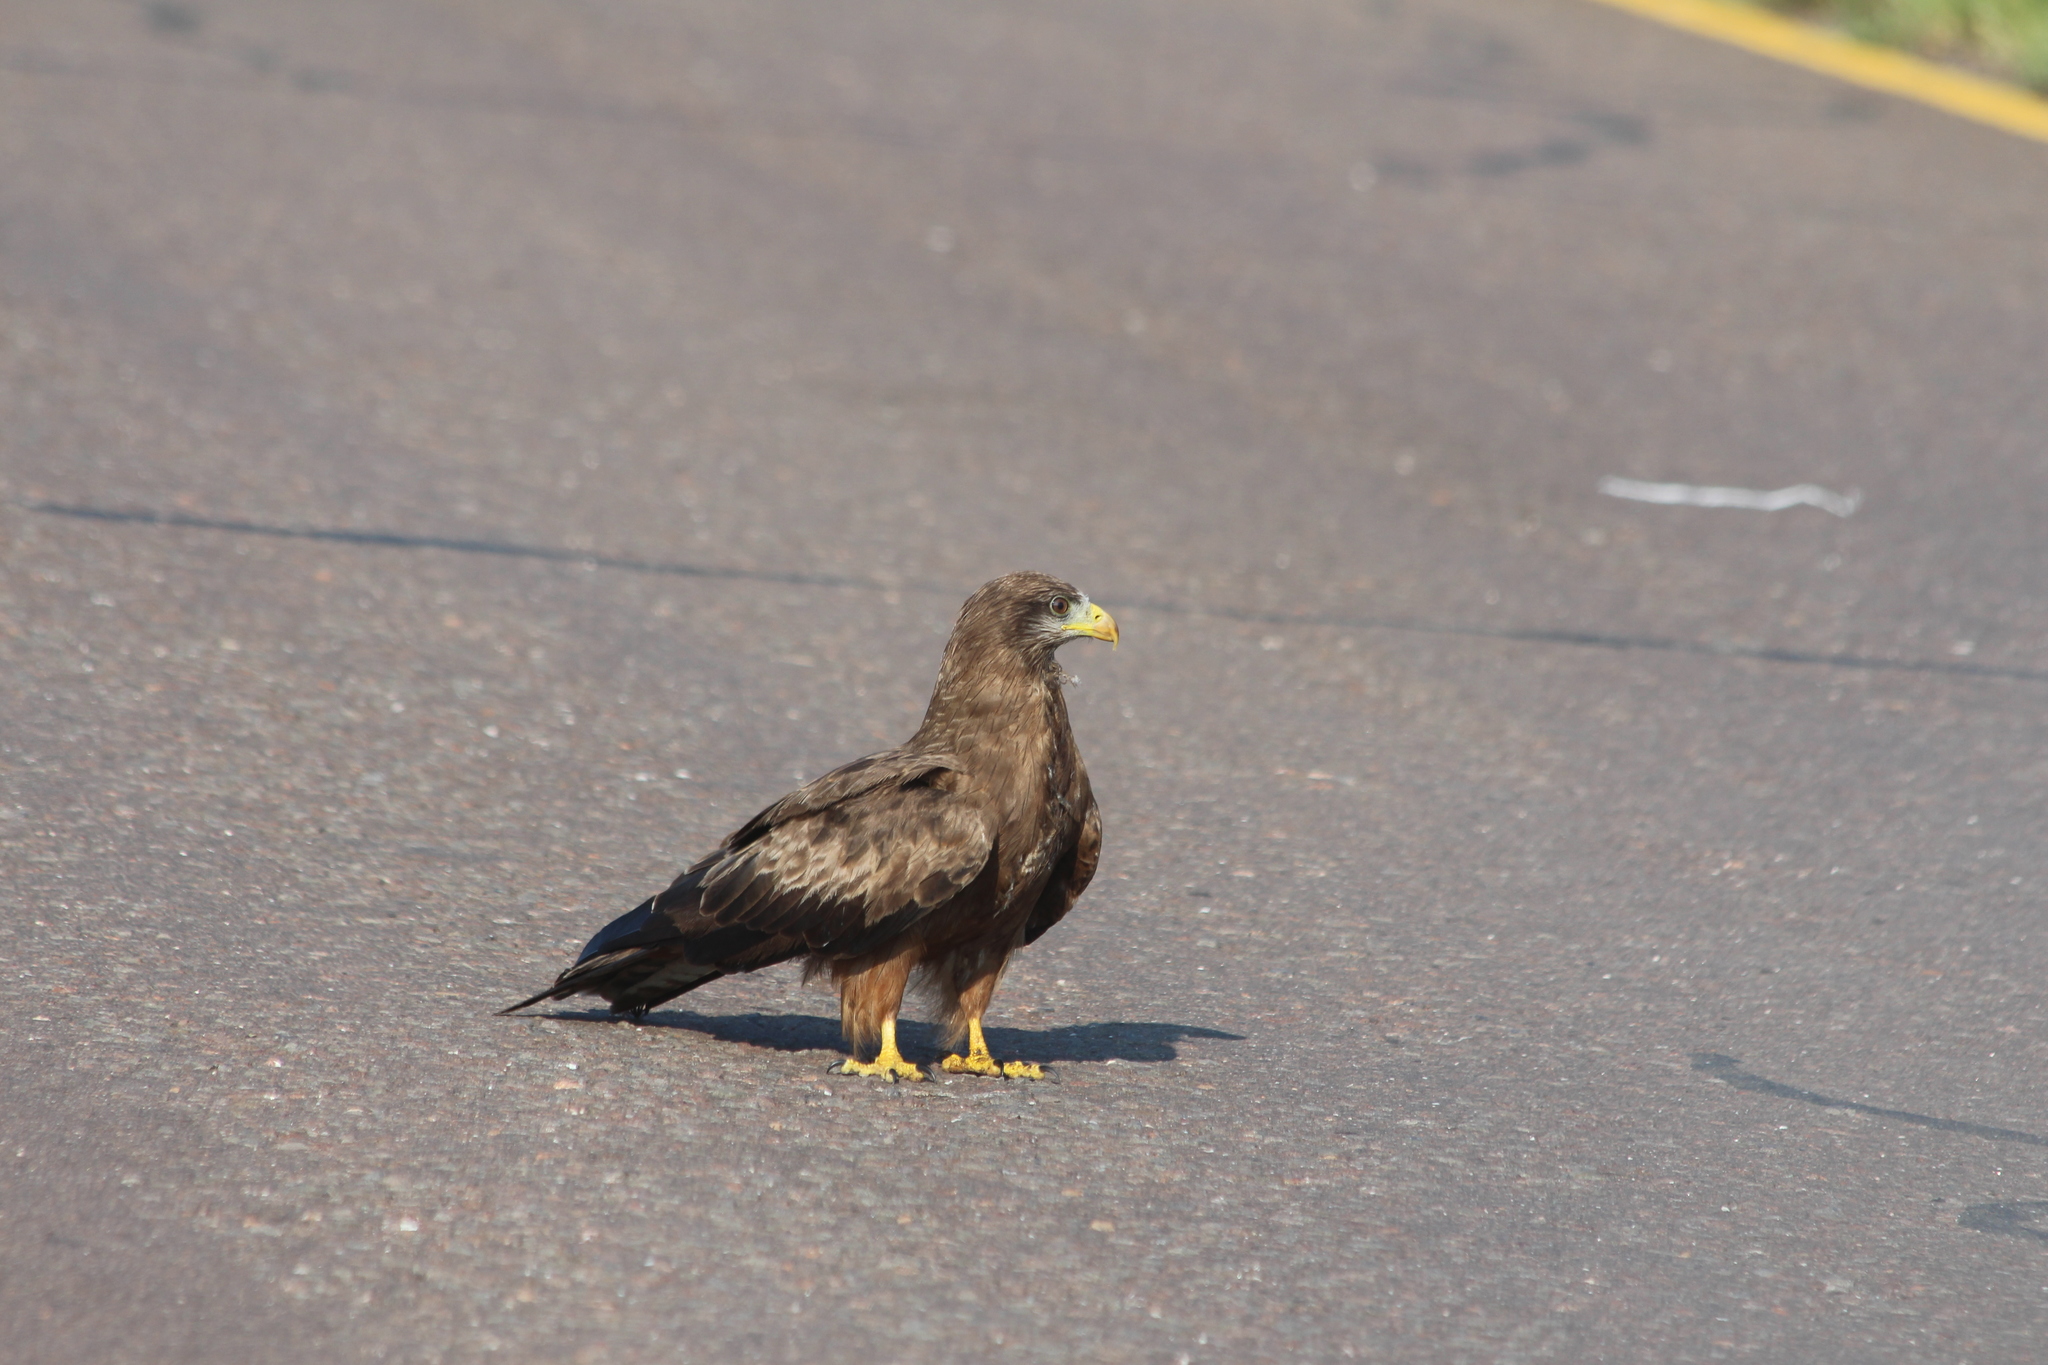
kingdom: Animalia
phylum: Chordata
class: Aves
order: Accipitriformes
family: Accipitridae
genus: Milvus
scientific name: Milvus migrans
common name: Black kite
